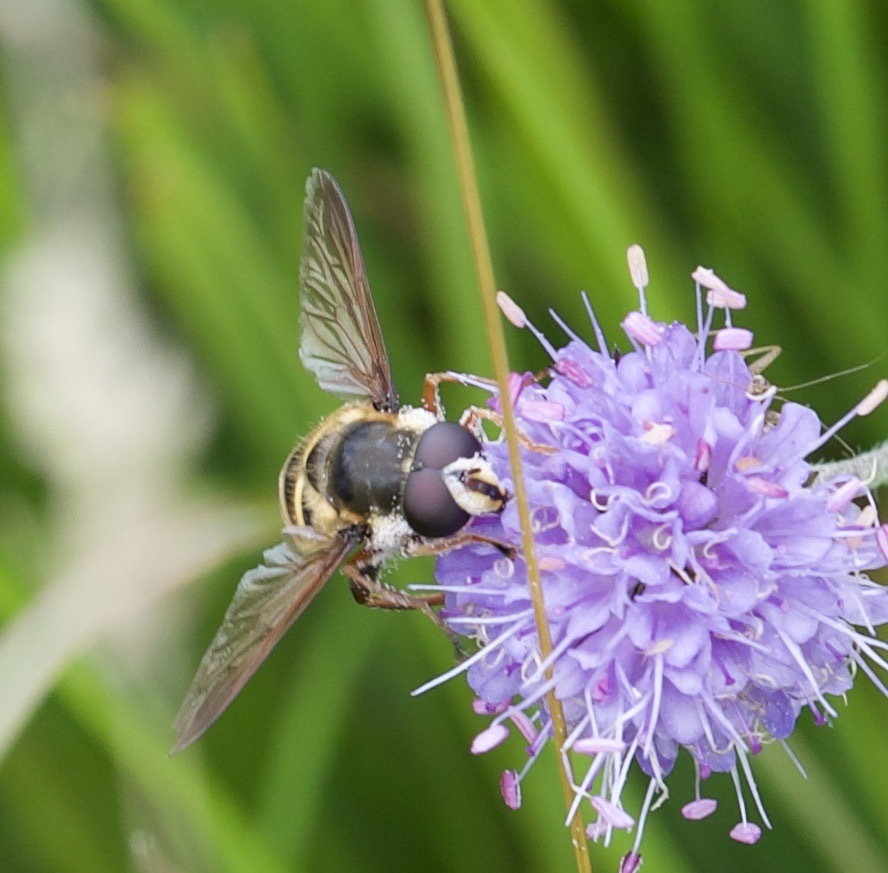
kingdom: Animalia
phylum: Arthropoda
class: Insecta
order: Diptera
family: Syrphidae
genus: Sericomyia
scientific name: Sericomyia silentis
